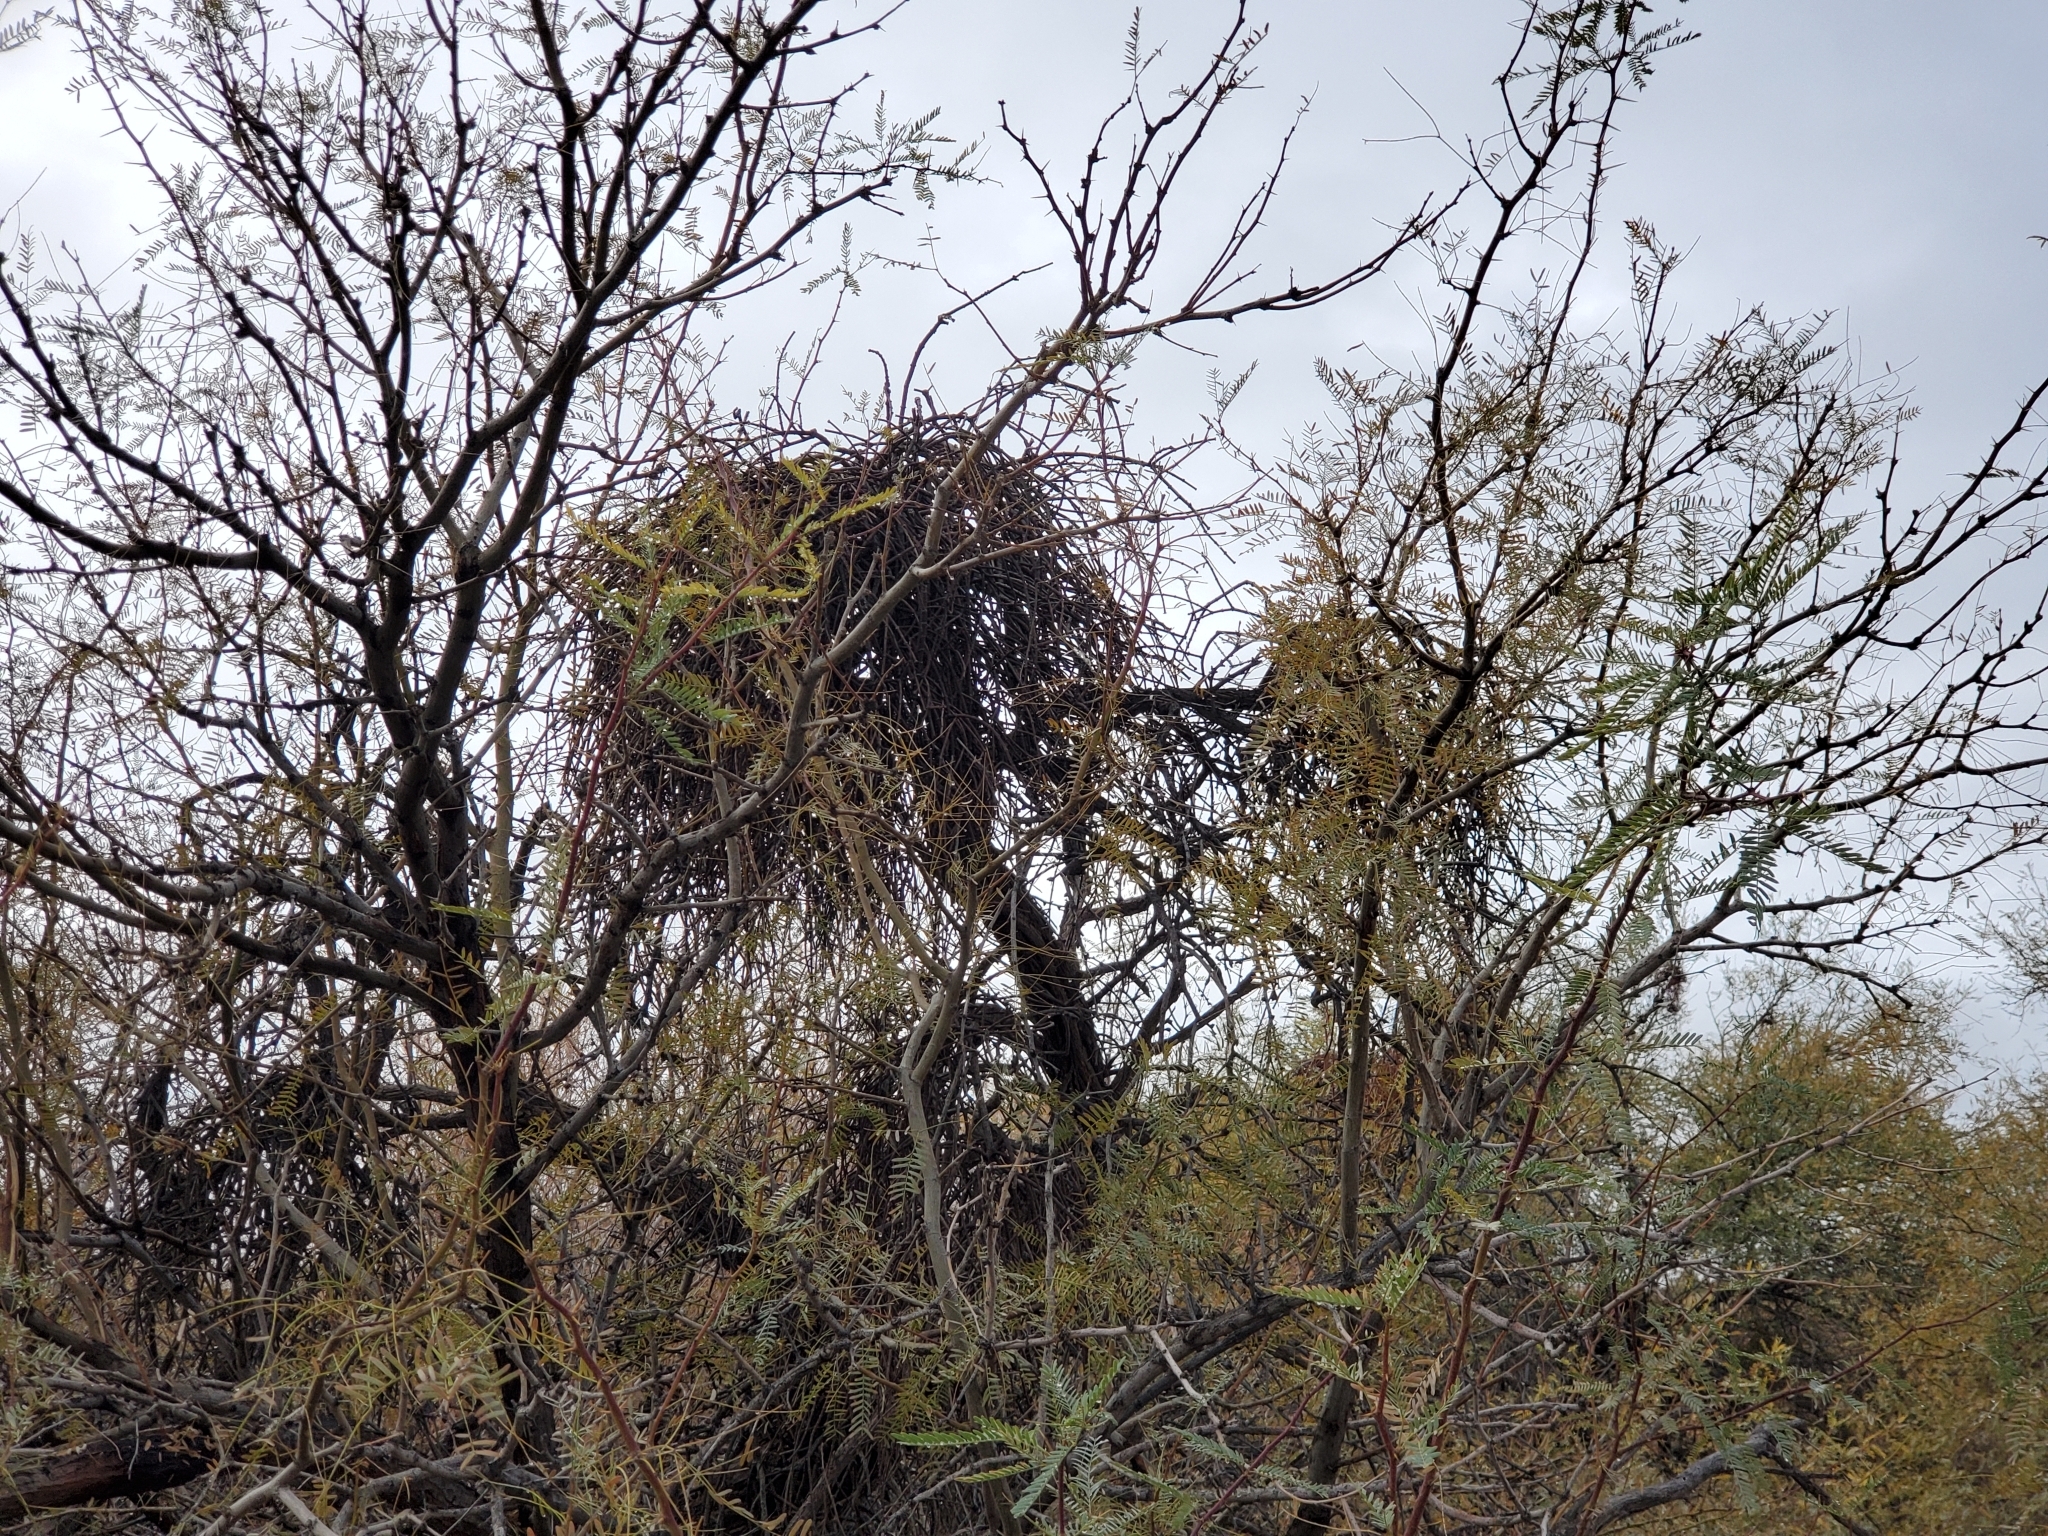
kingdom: Plantae
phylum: Tracheophyta
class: Magnoliopsida
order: Fabales
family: Fabaceae
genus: Prosopis
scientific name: Prosopis pubescens
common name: Screw-bean
